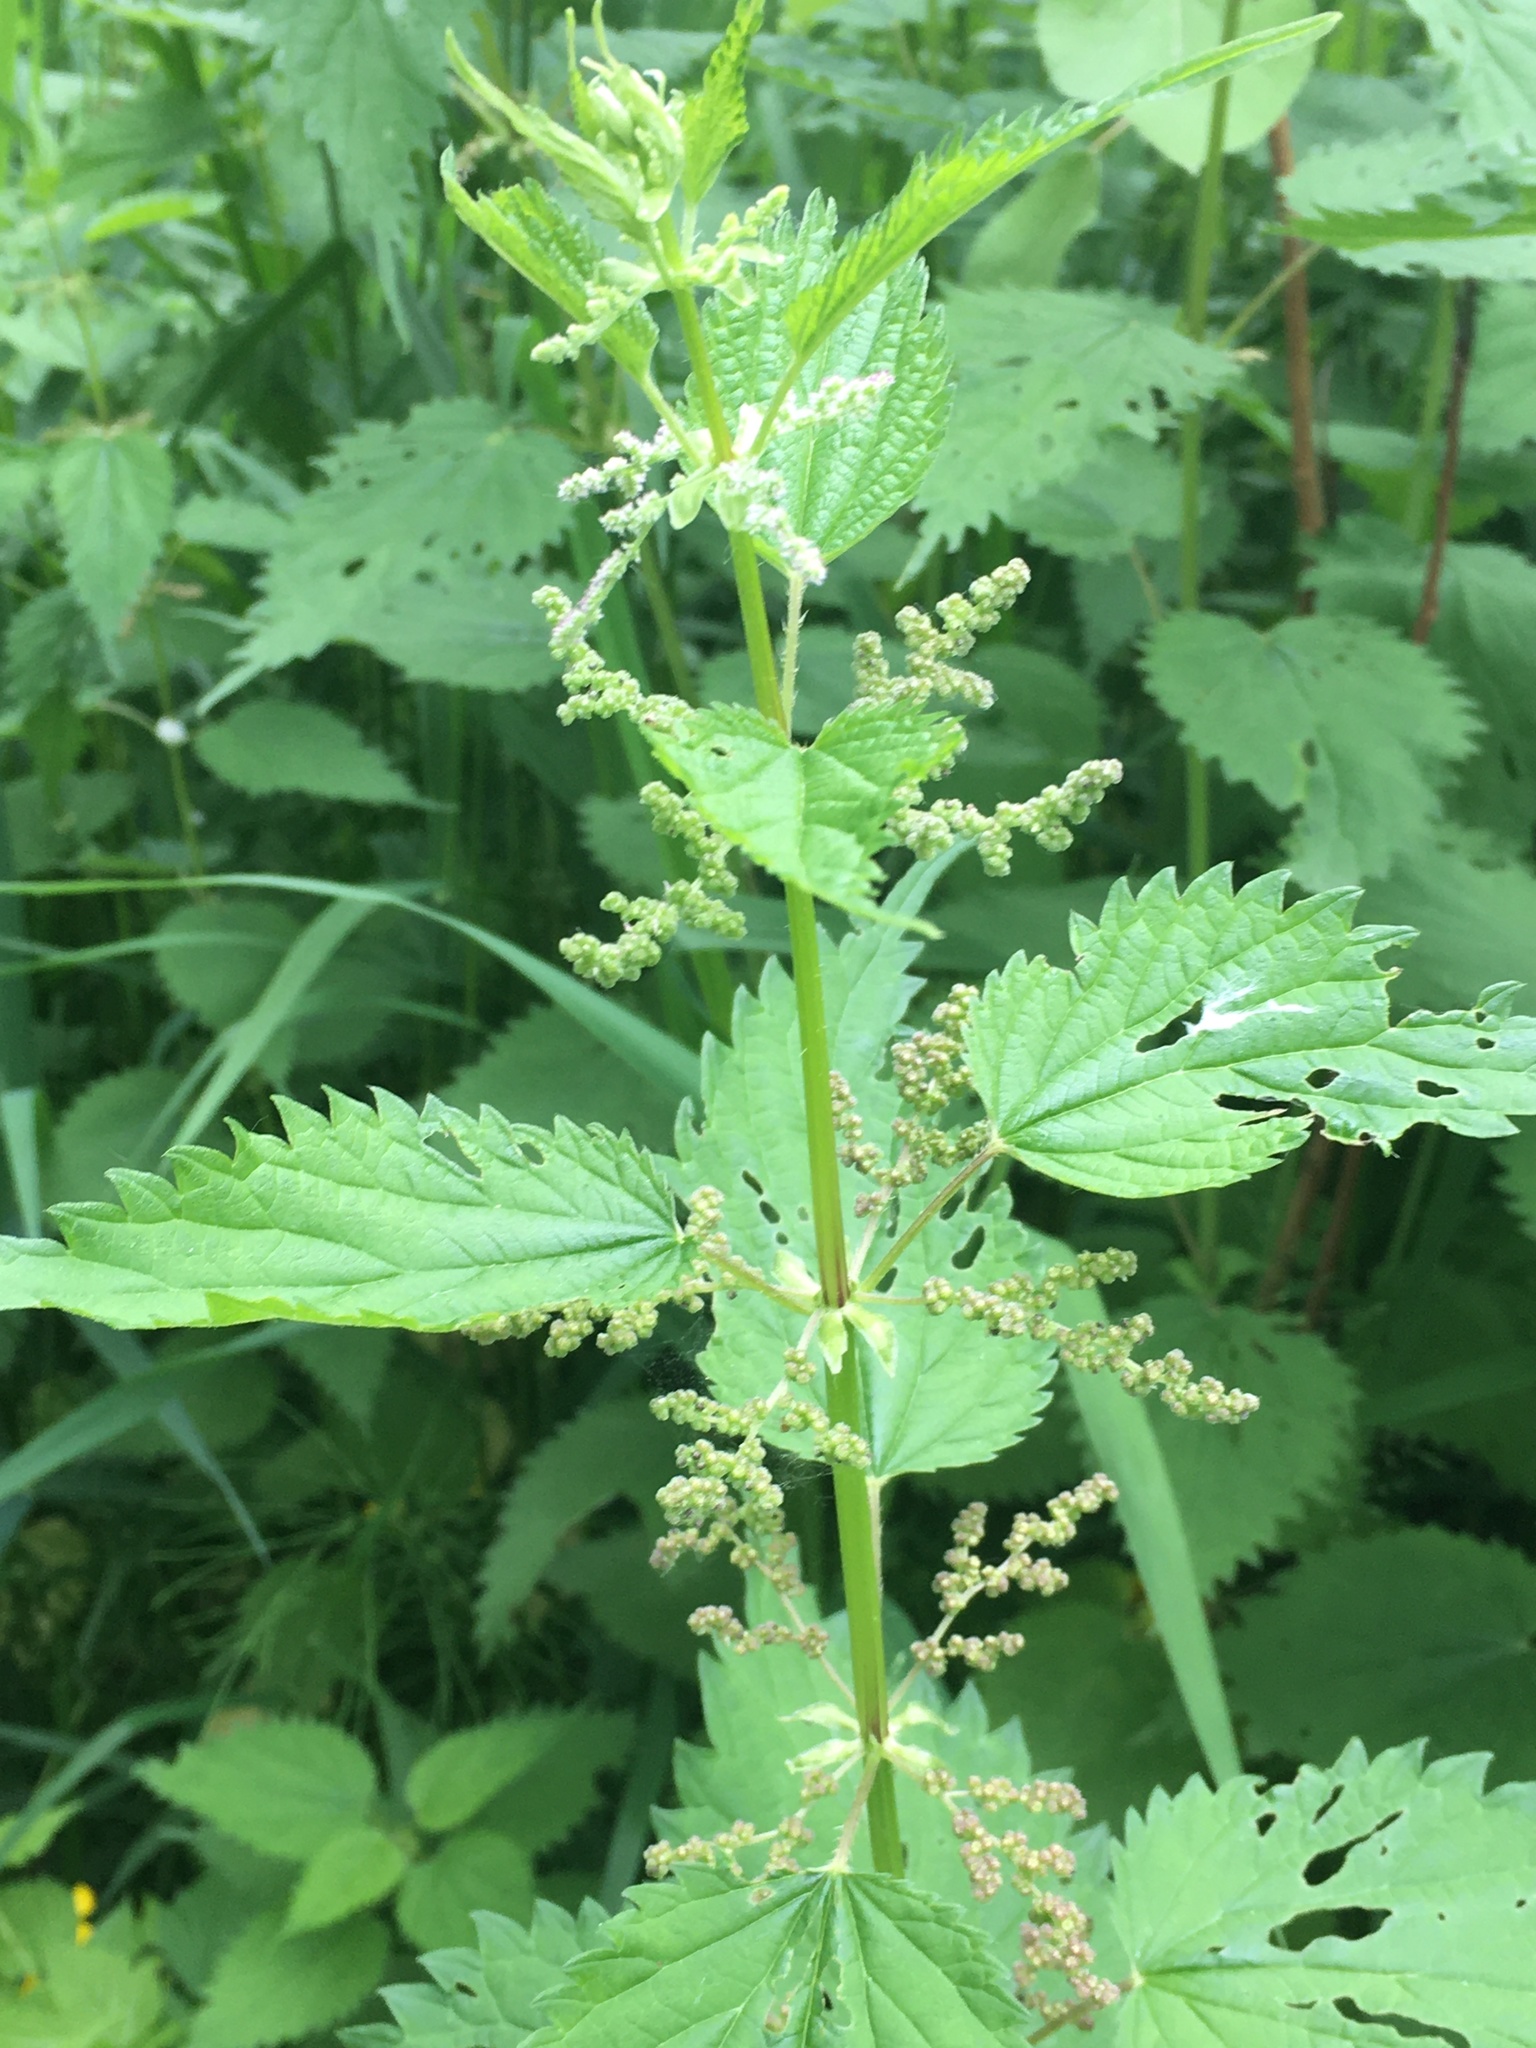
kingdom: Plantae
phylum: Tracheophyta
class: Magnoliopsida
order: Rosales
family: Urticaceae
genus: Urtica
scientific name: Urtica dioica
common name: Common nettle
